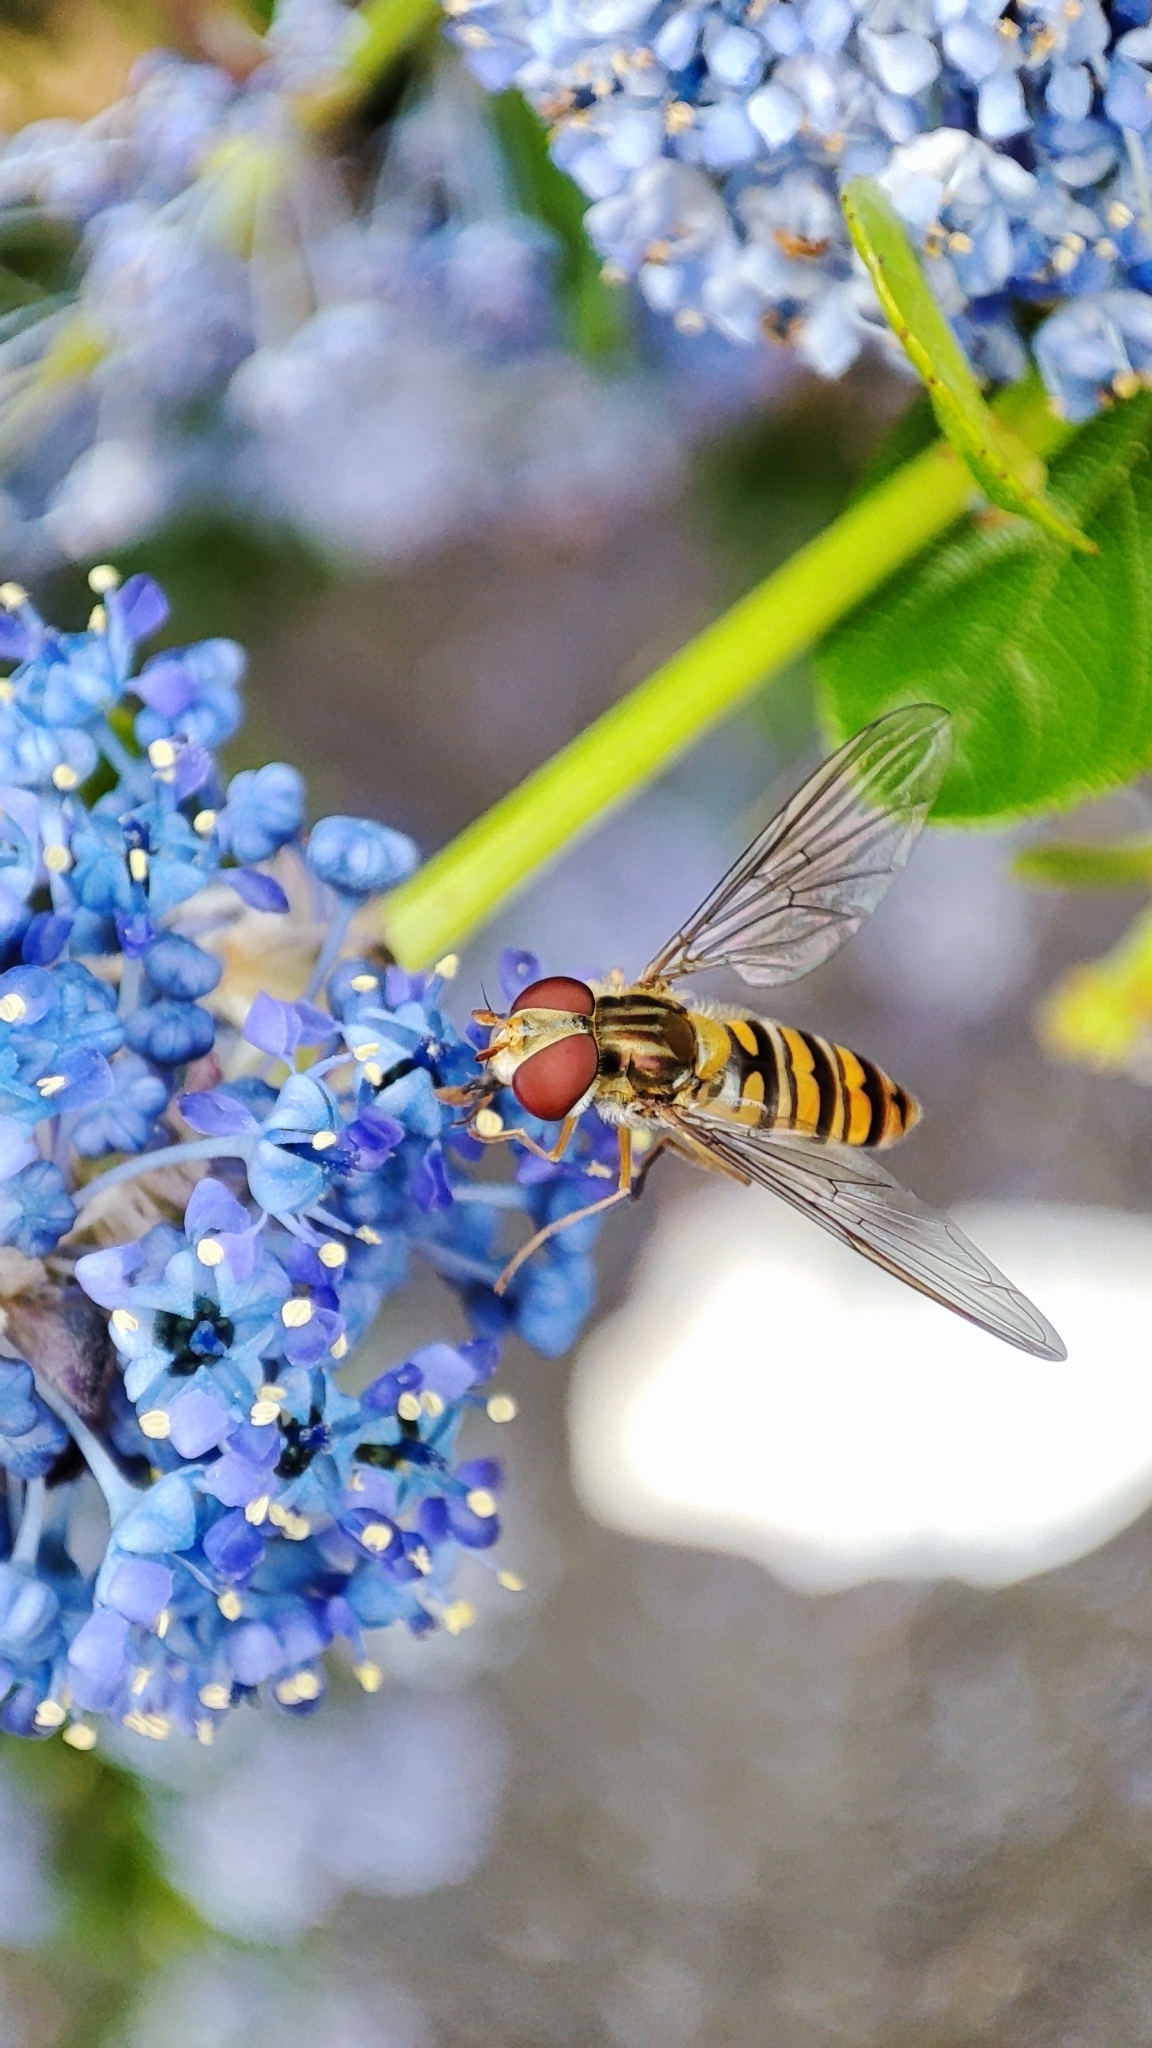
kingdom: Animalia
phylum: Arthropoda
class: Insecta
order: Diptera
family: Syrphidae
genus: Episyrphus
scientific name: Episyrphus balteatus
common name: Marmalade hoverfly
